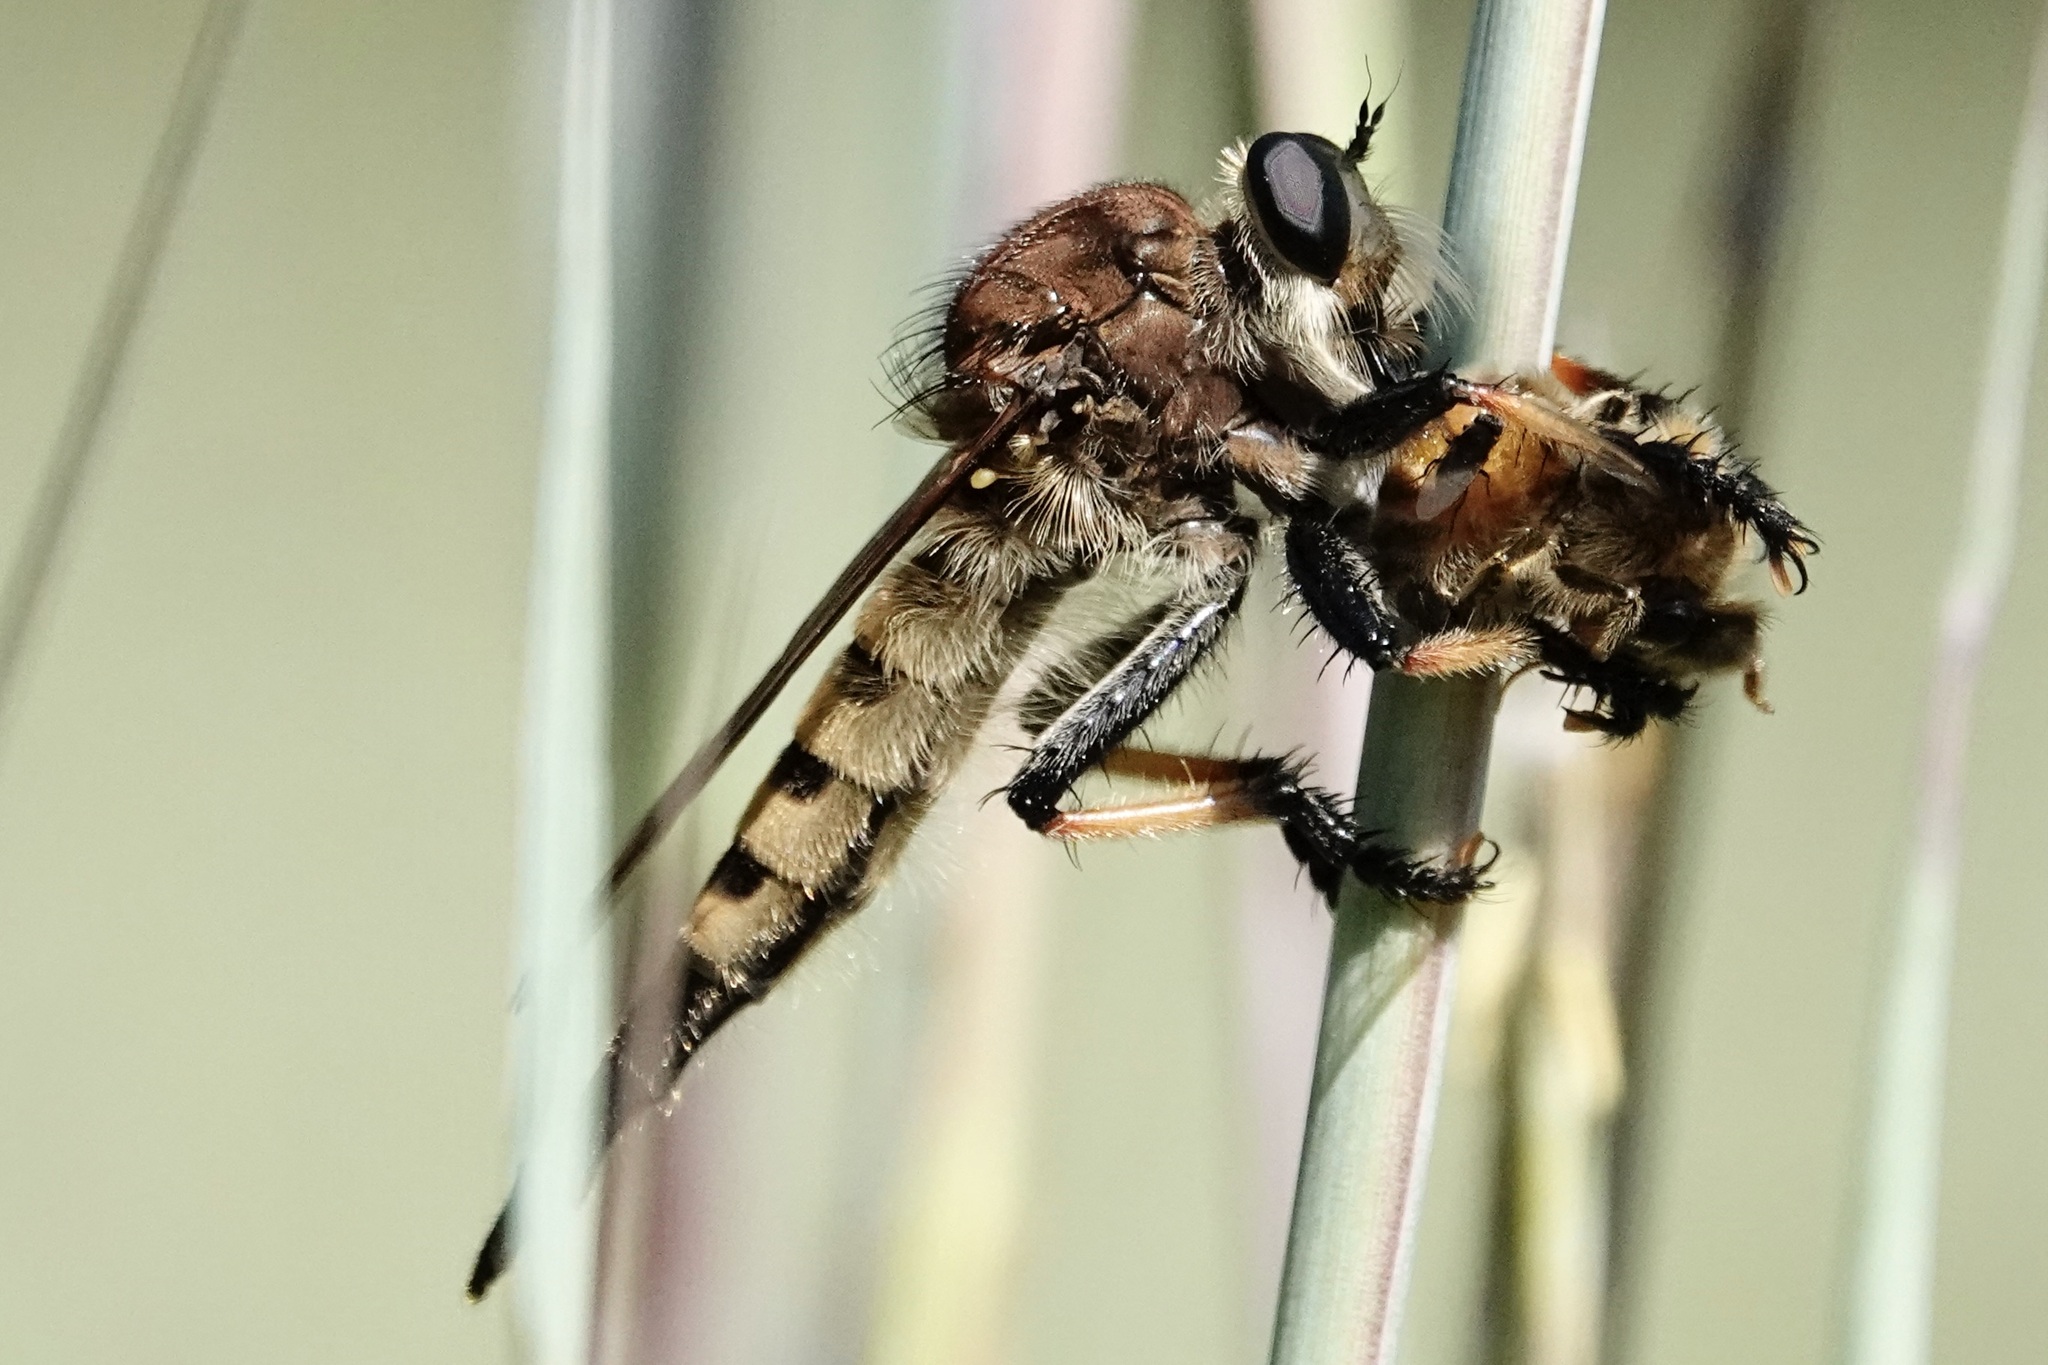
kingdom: Animalia
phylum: Arthropoda
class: Insecta
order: Diptera
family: Asilidae
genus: Promachus
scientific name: Promachus rufipes
